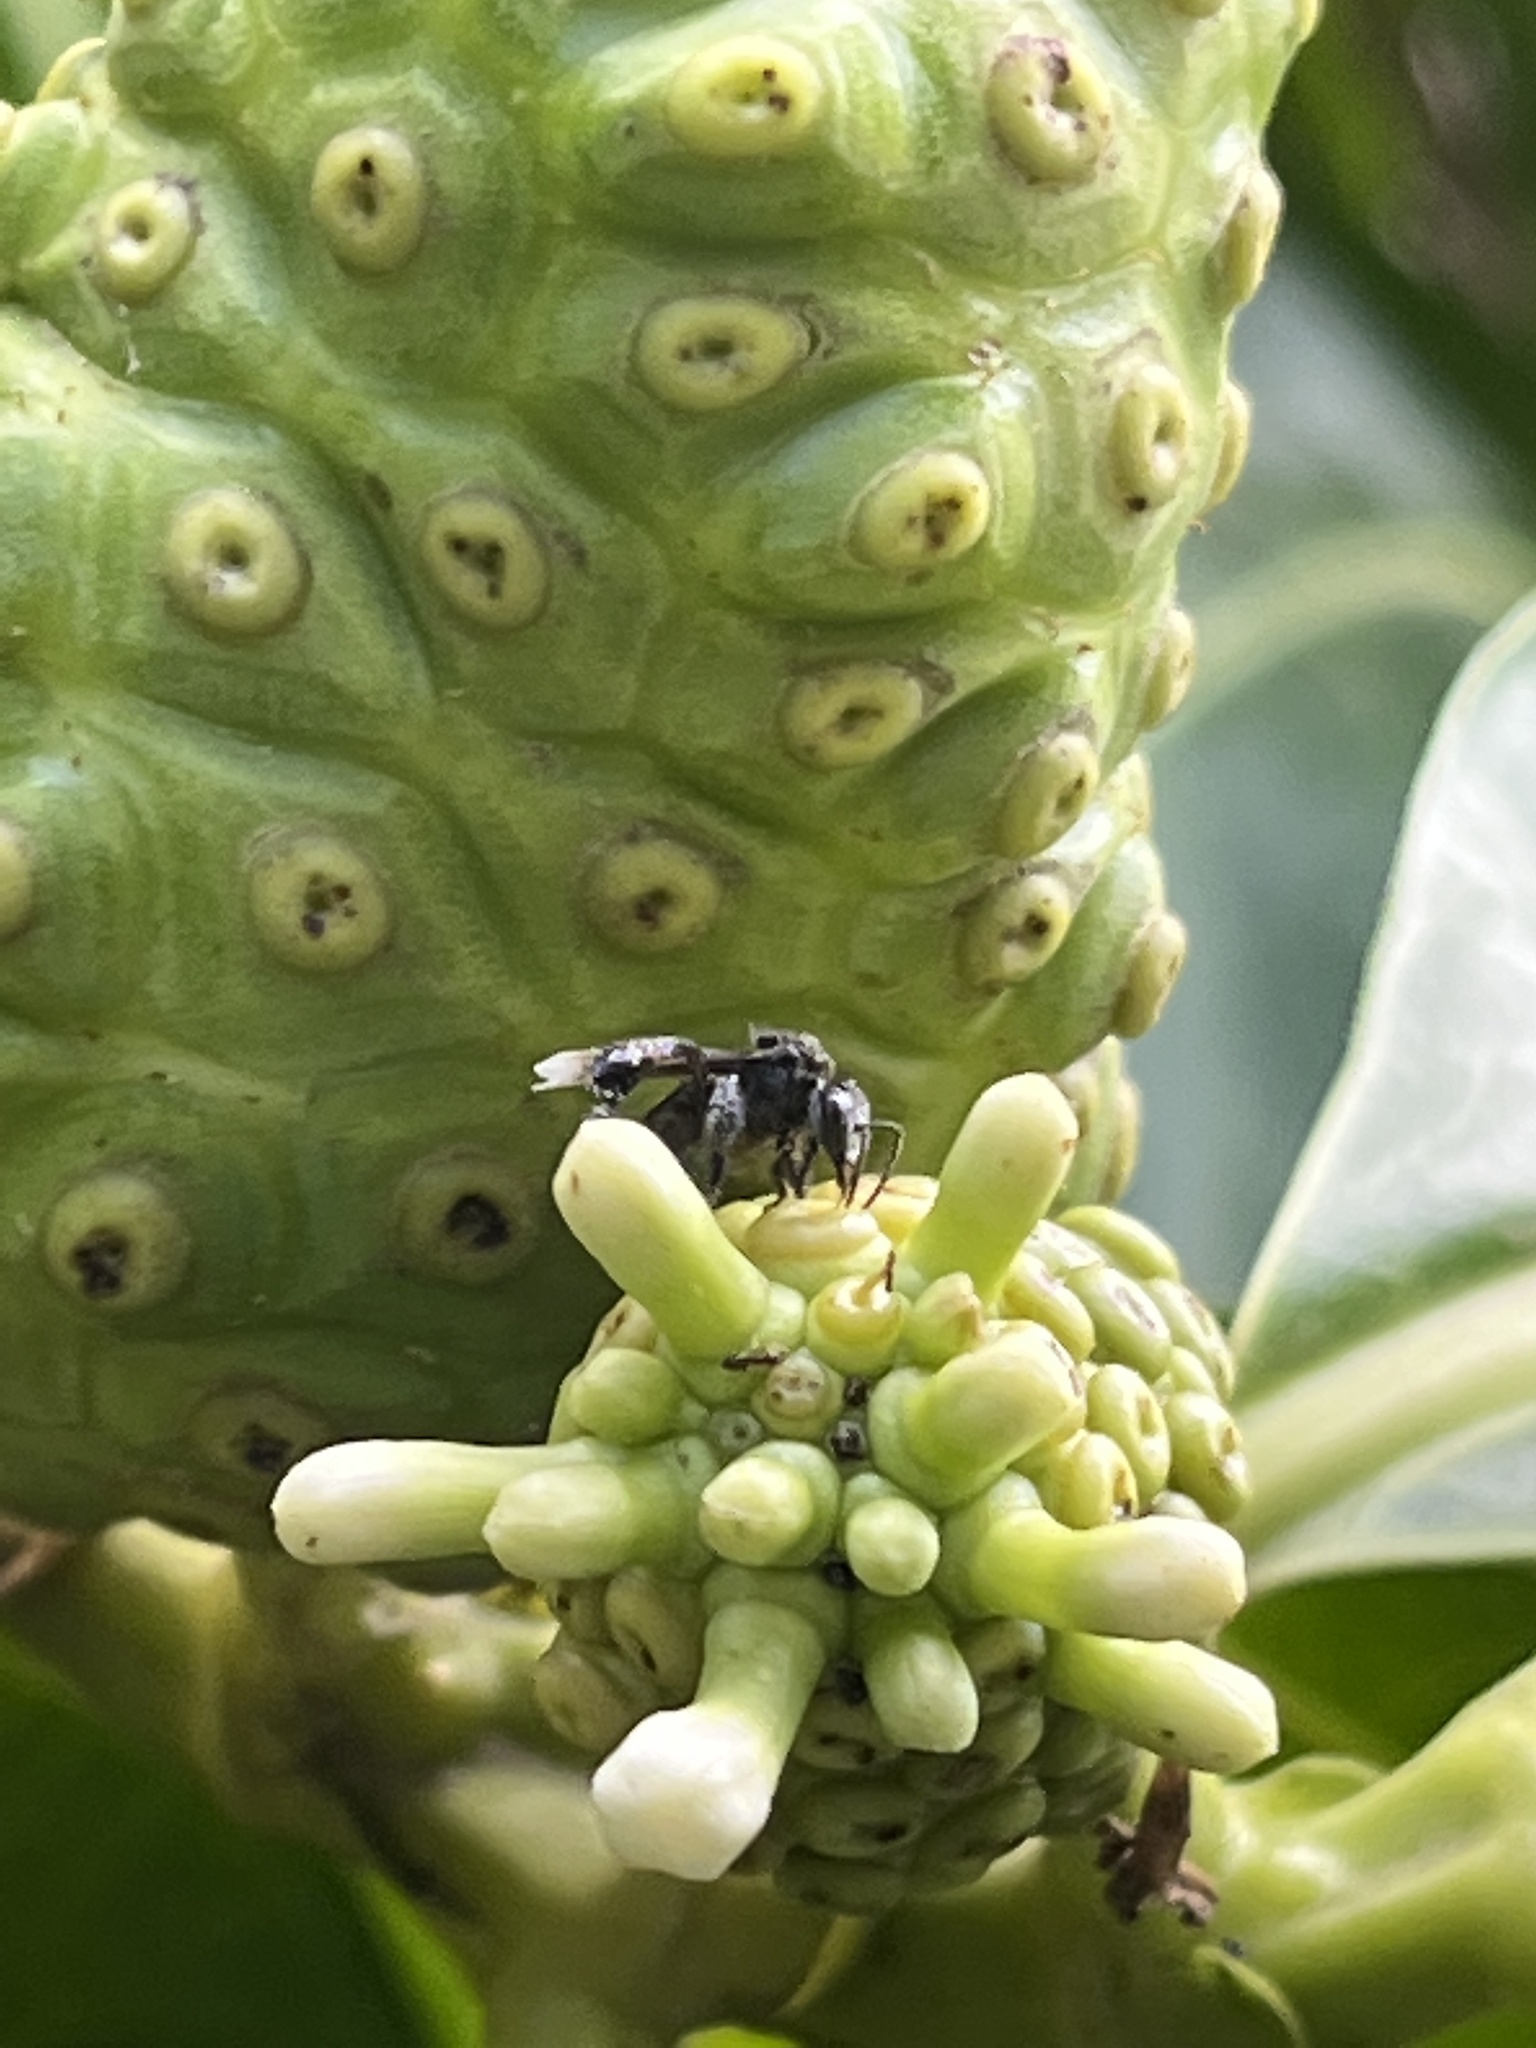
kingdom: Animalia
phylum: Arthropoda
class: Insecta
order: Hymenoptera
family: Apidae
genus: Frieseomelitta
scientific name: Frieseomelitta nigra
